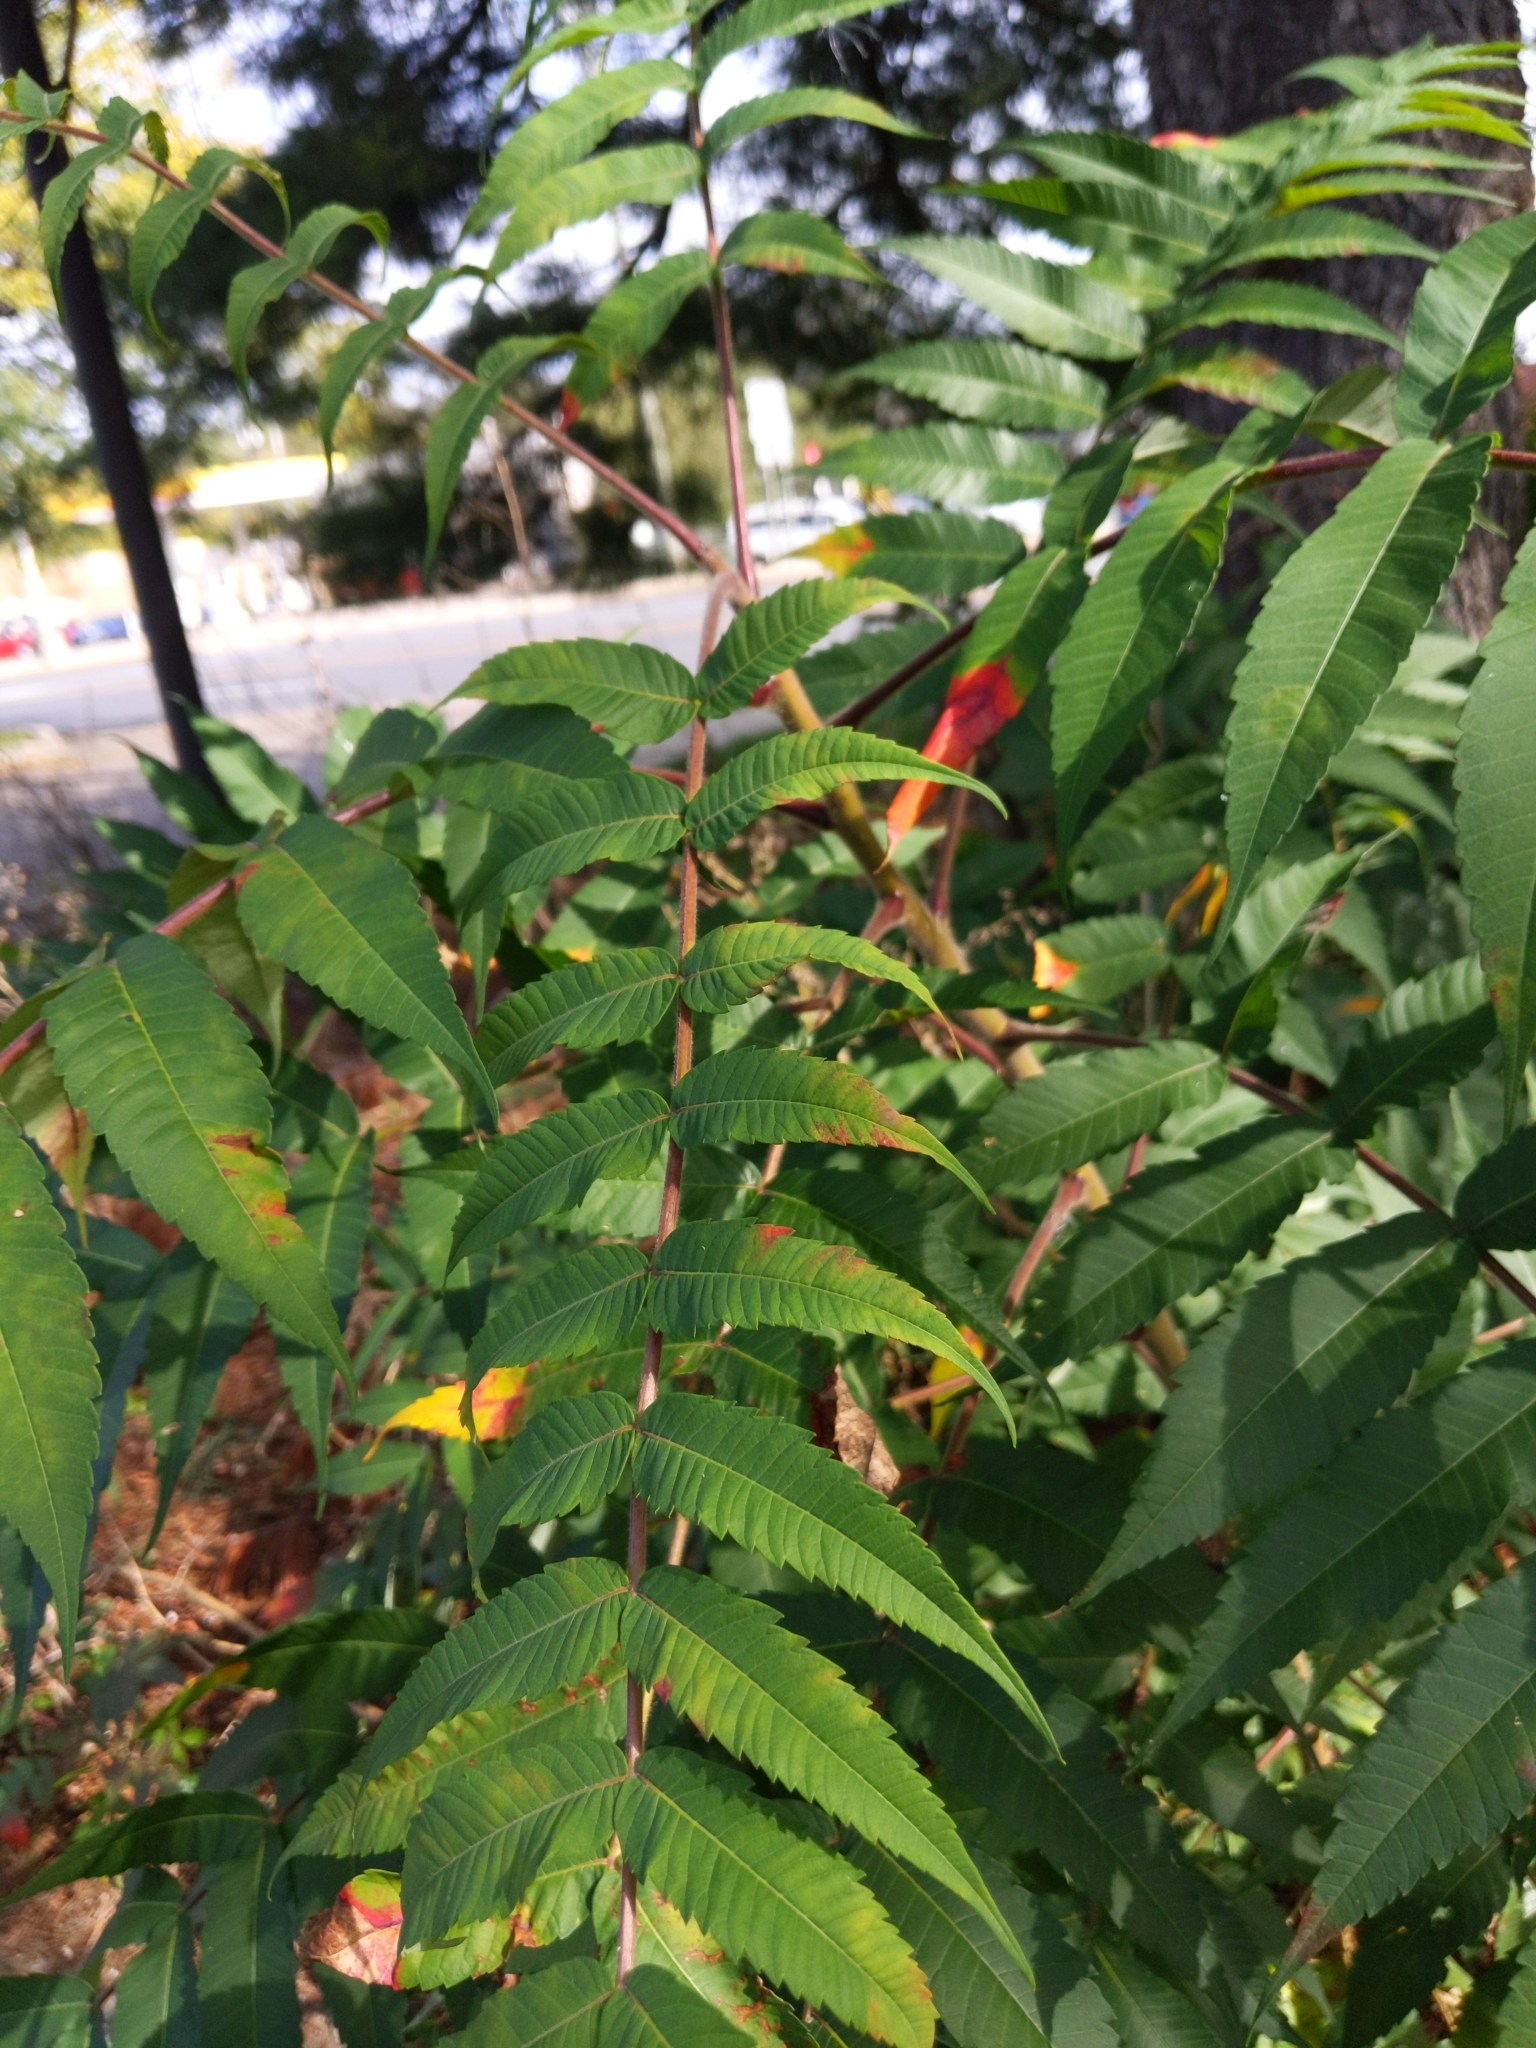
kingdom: Plantae
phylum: Tracheophyta
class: Magnoliopsida
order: Sapindales
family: Anacardiaceae
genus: Rhus
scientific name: Rhus typhina
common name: Staghorn sumac
